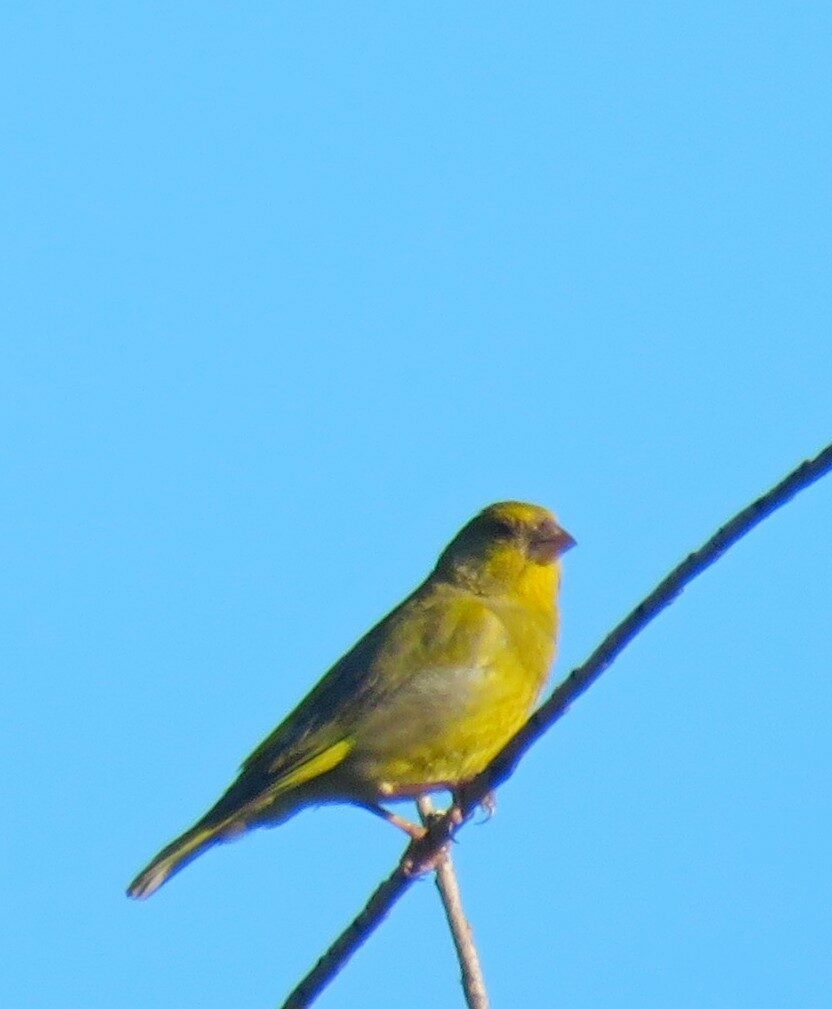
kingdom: Plantae
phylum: Tracheophyta
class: Liliopsida
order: Poales
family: Poaceae
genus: Chloris
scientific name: Chloris chloris
